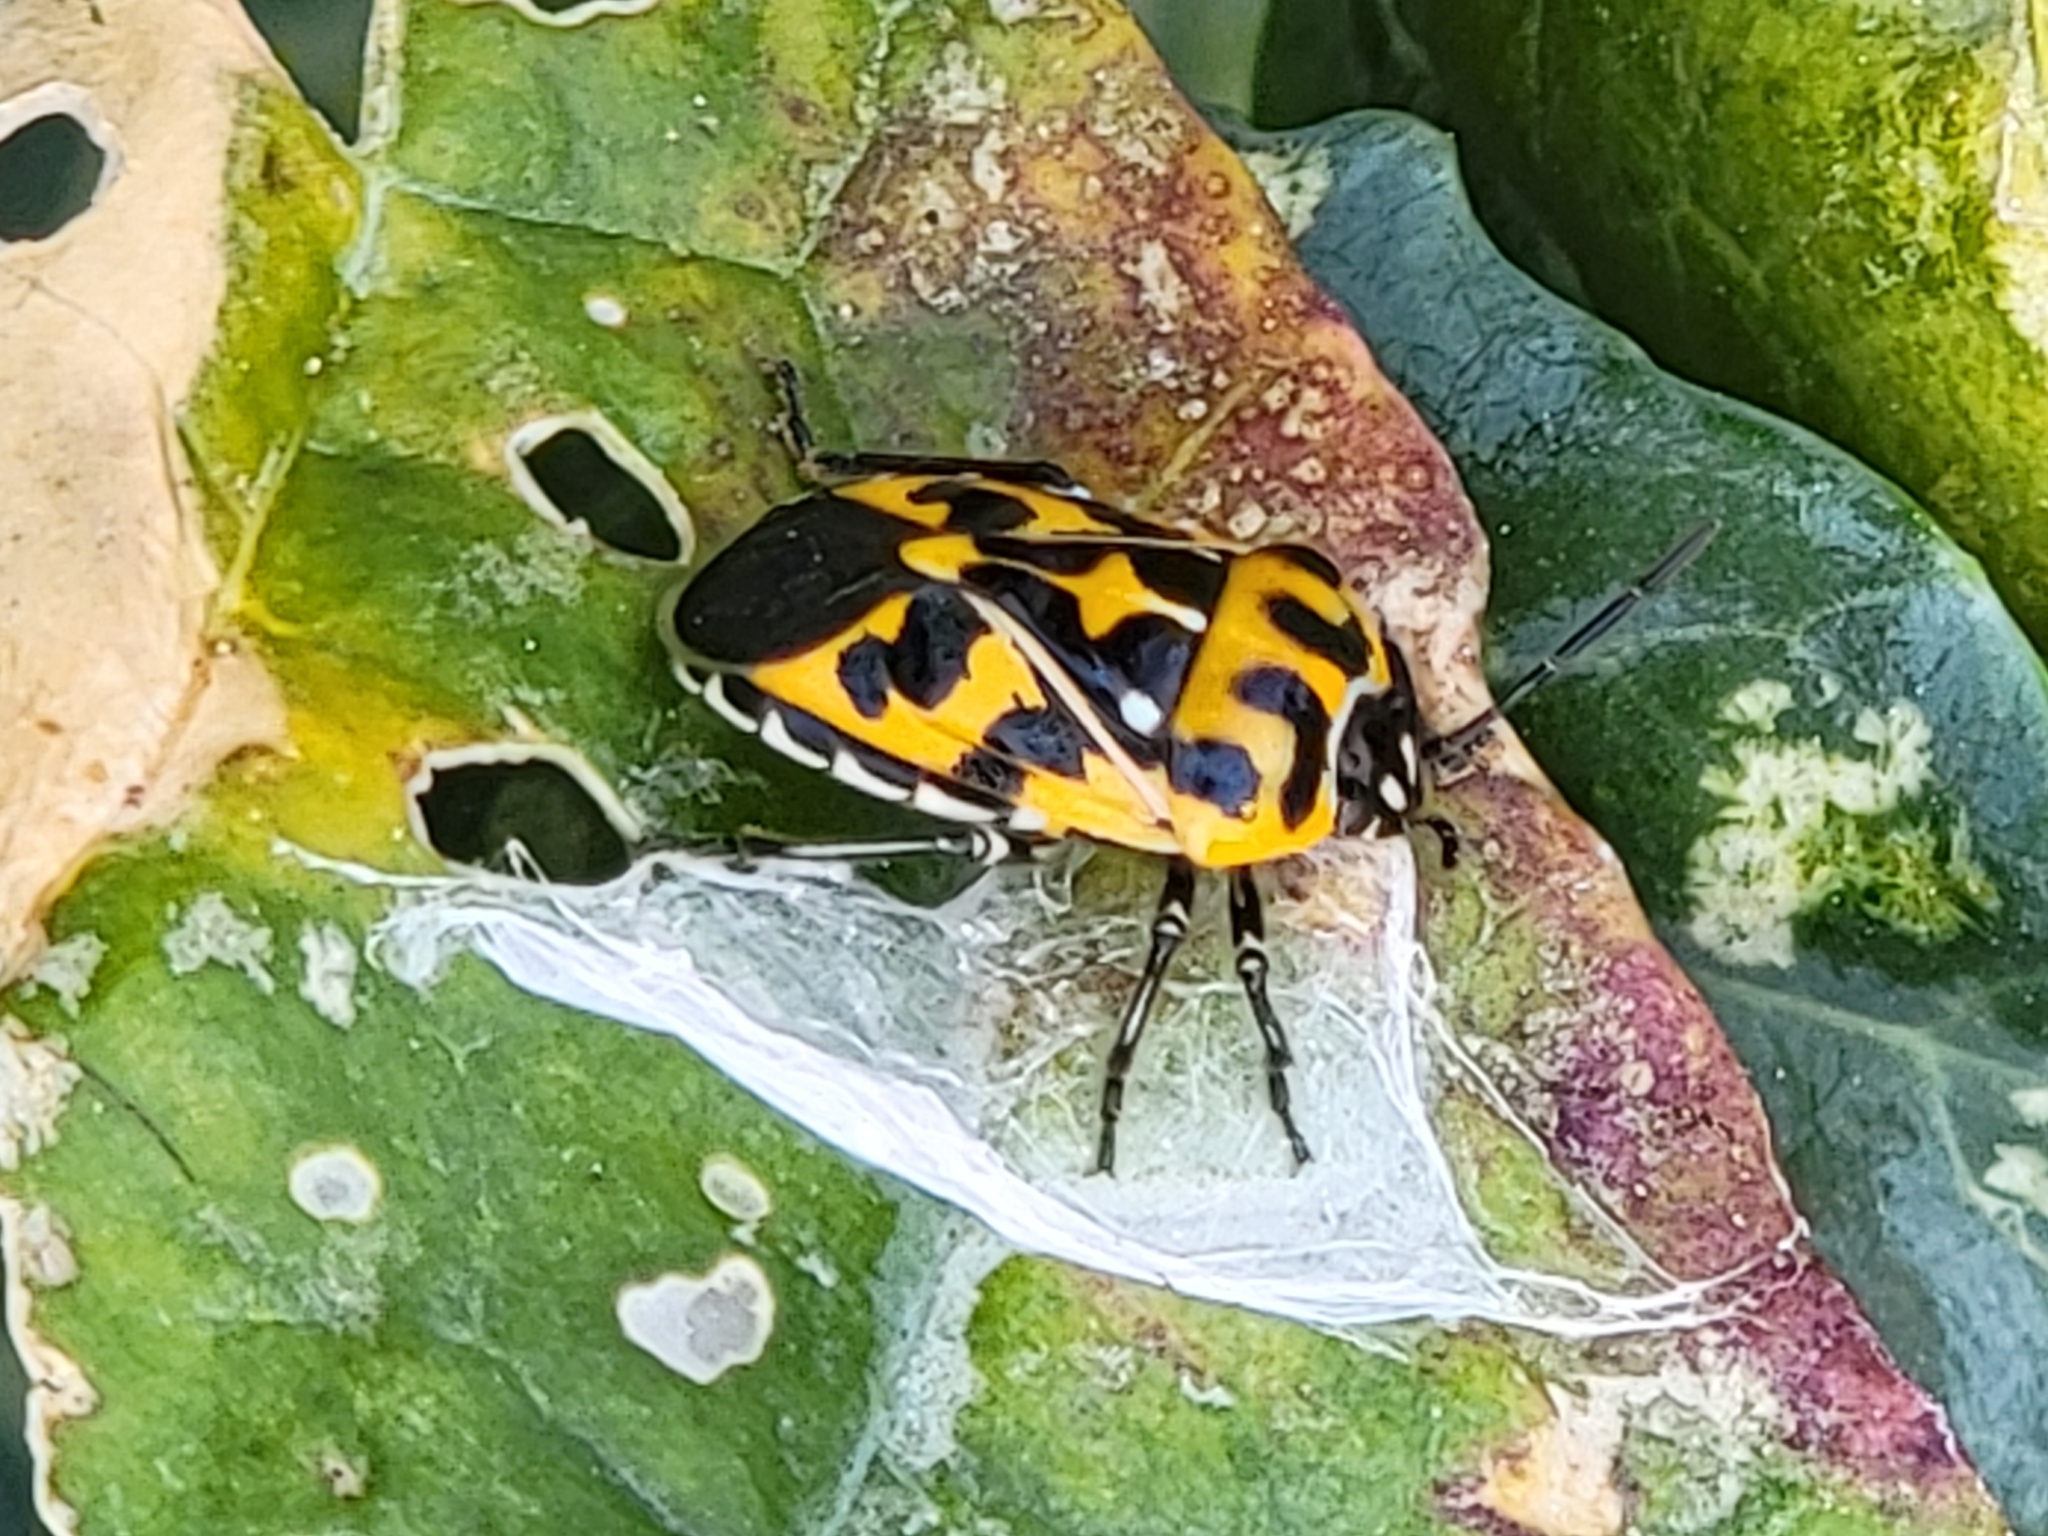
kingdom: Animalia
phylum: Arthropoda
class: Insecta
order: Hemiptera
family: Pentatomidae
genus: Murgantia
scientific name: Murgantia histrionica
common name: Harlequin bug
